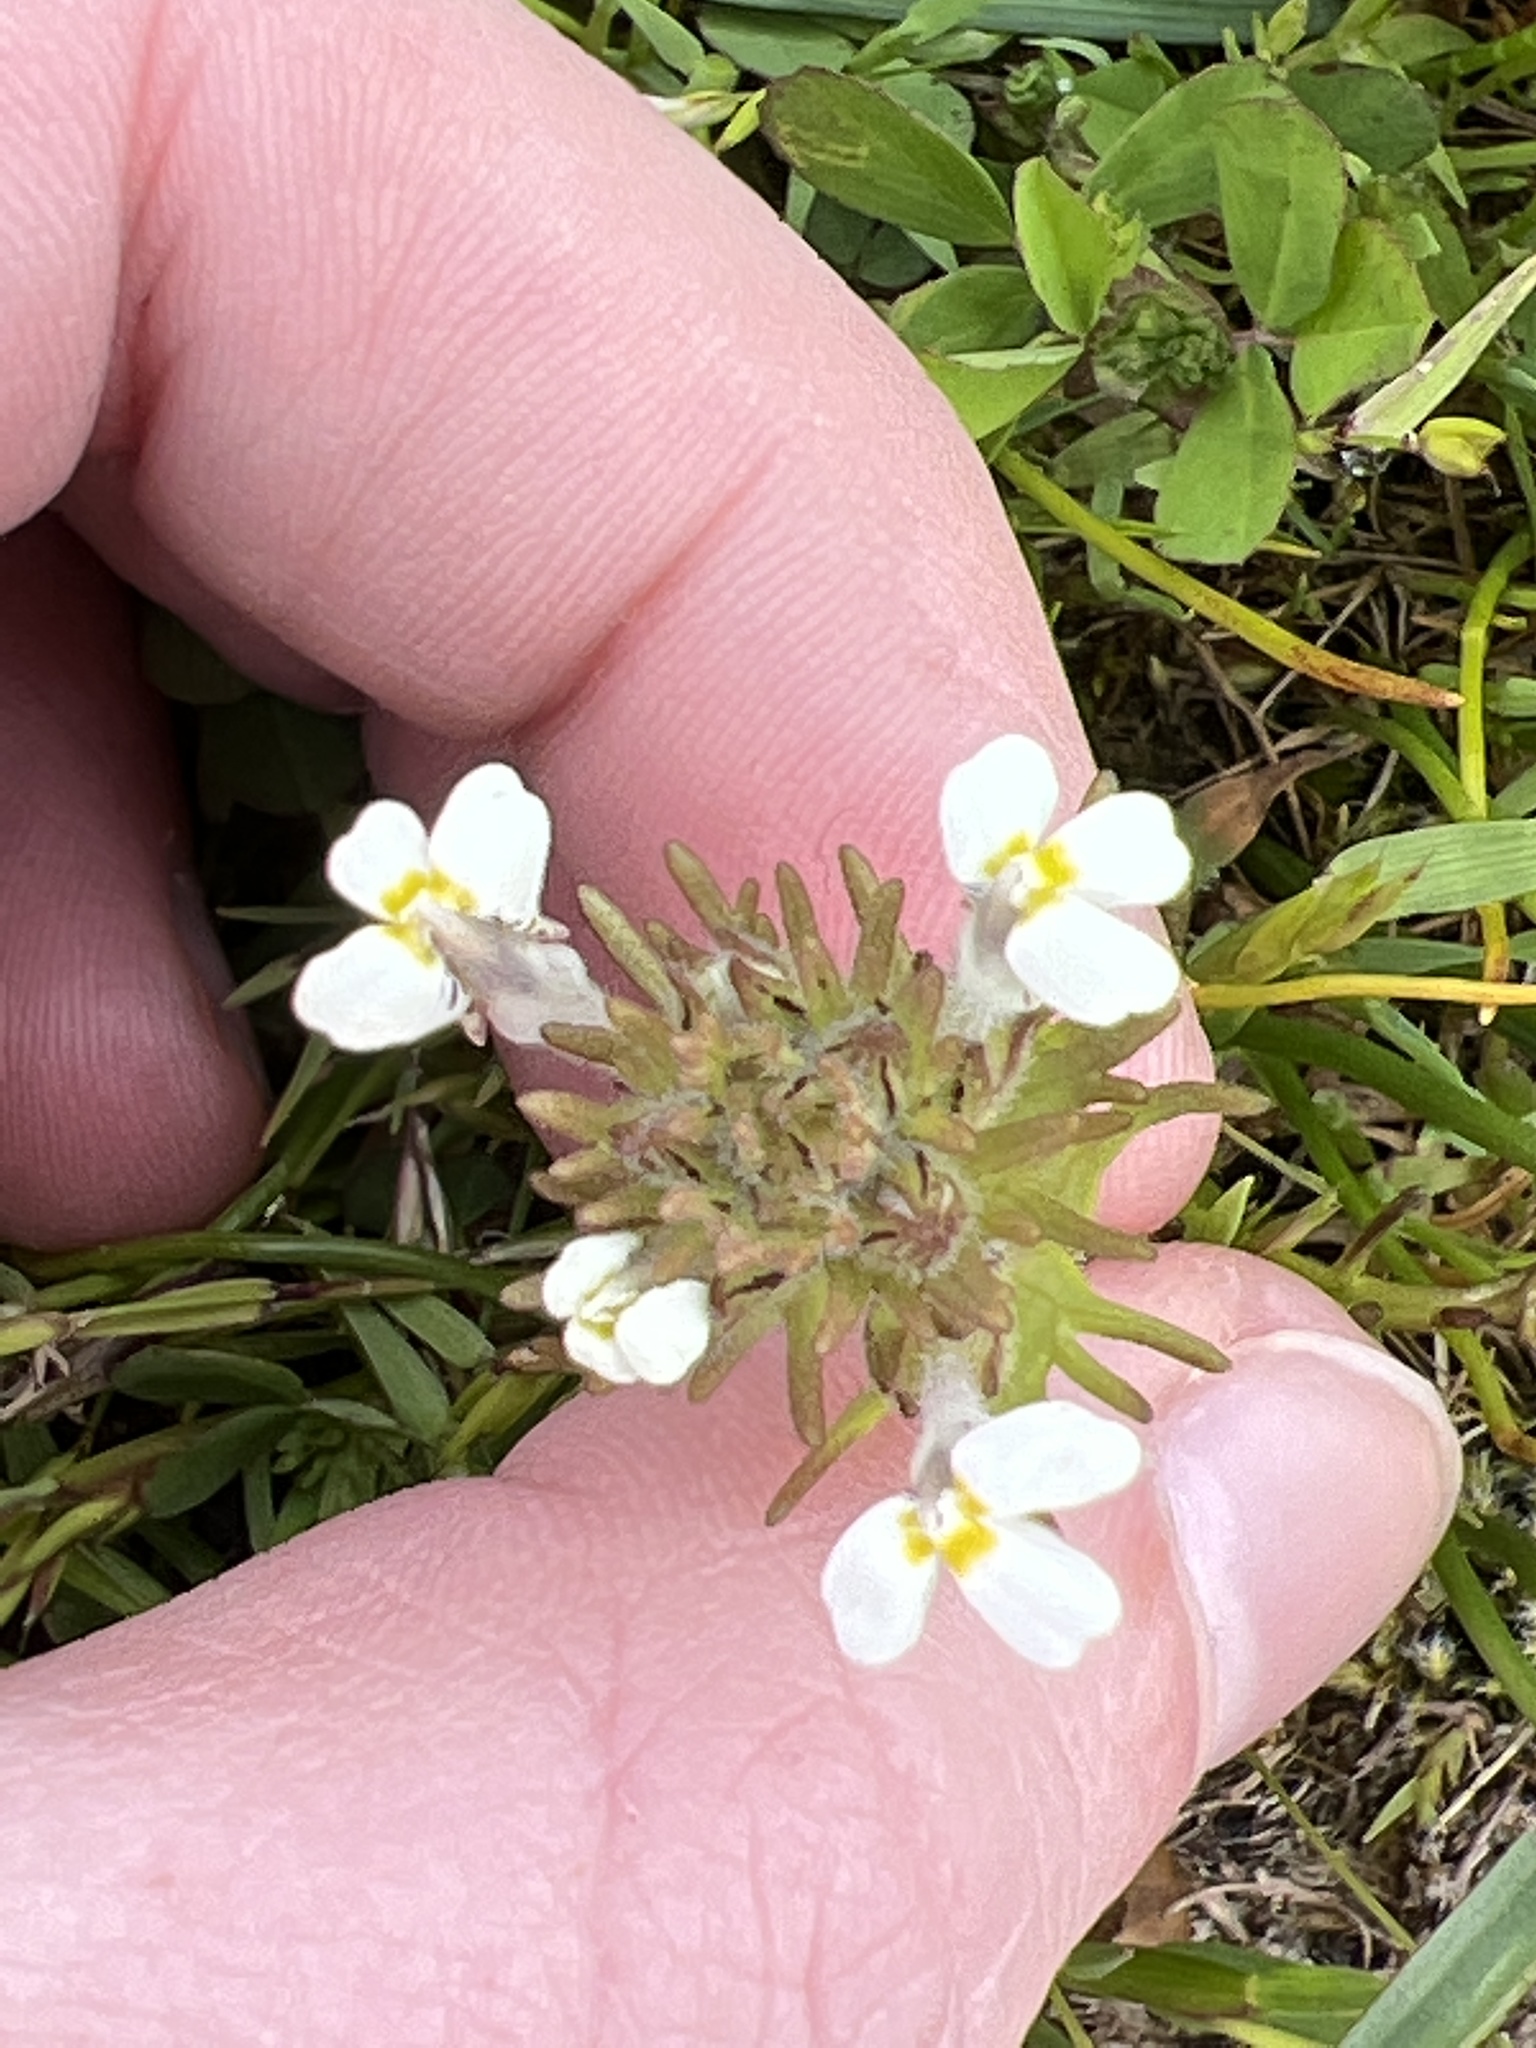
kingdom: Plantae
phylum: Tracheophyta
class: Magnoliopsida
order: Lamiales
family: Orobanchaceae
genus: Triphysaria
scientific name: Triphysaria versicolor
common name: Bearded false owl-clover
